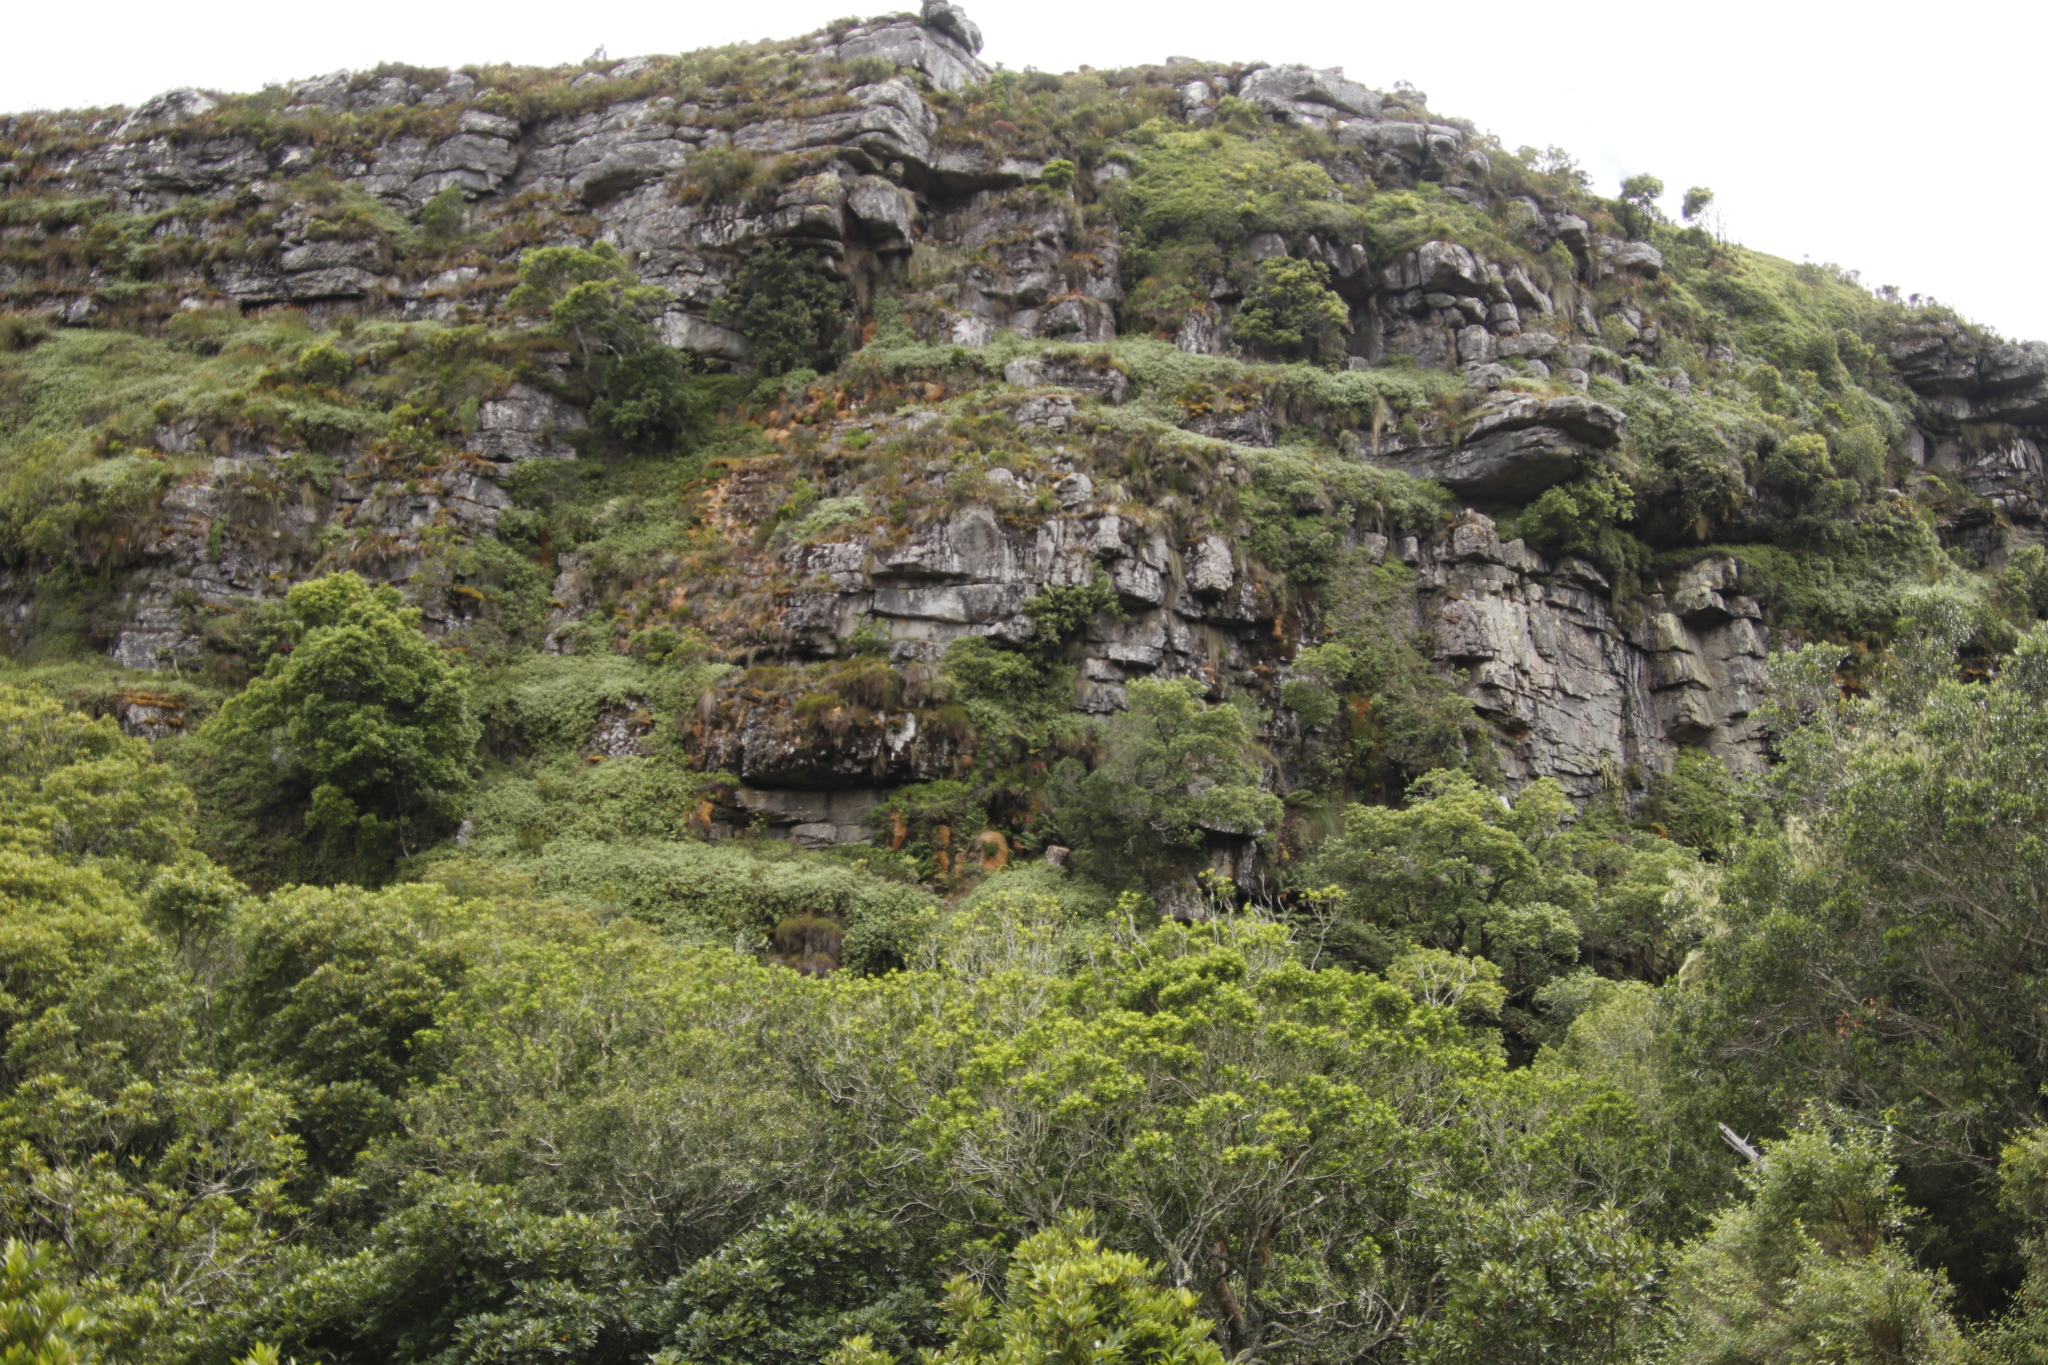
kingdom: Plantae
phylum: Tracheophyta
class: Liliopsida
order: Asparagales
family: Orchidaceae
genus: Disa
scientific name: Disa uniflora
